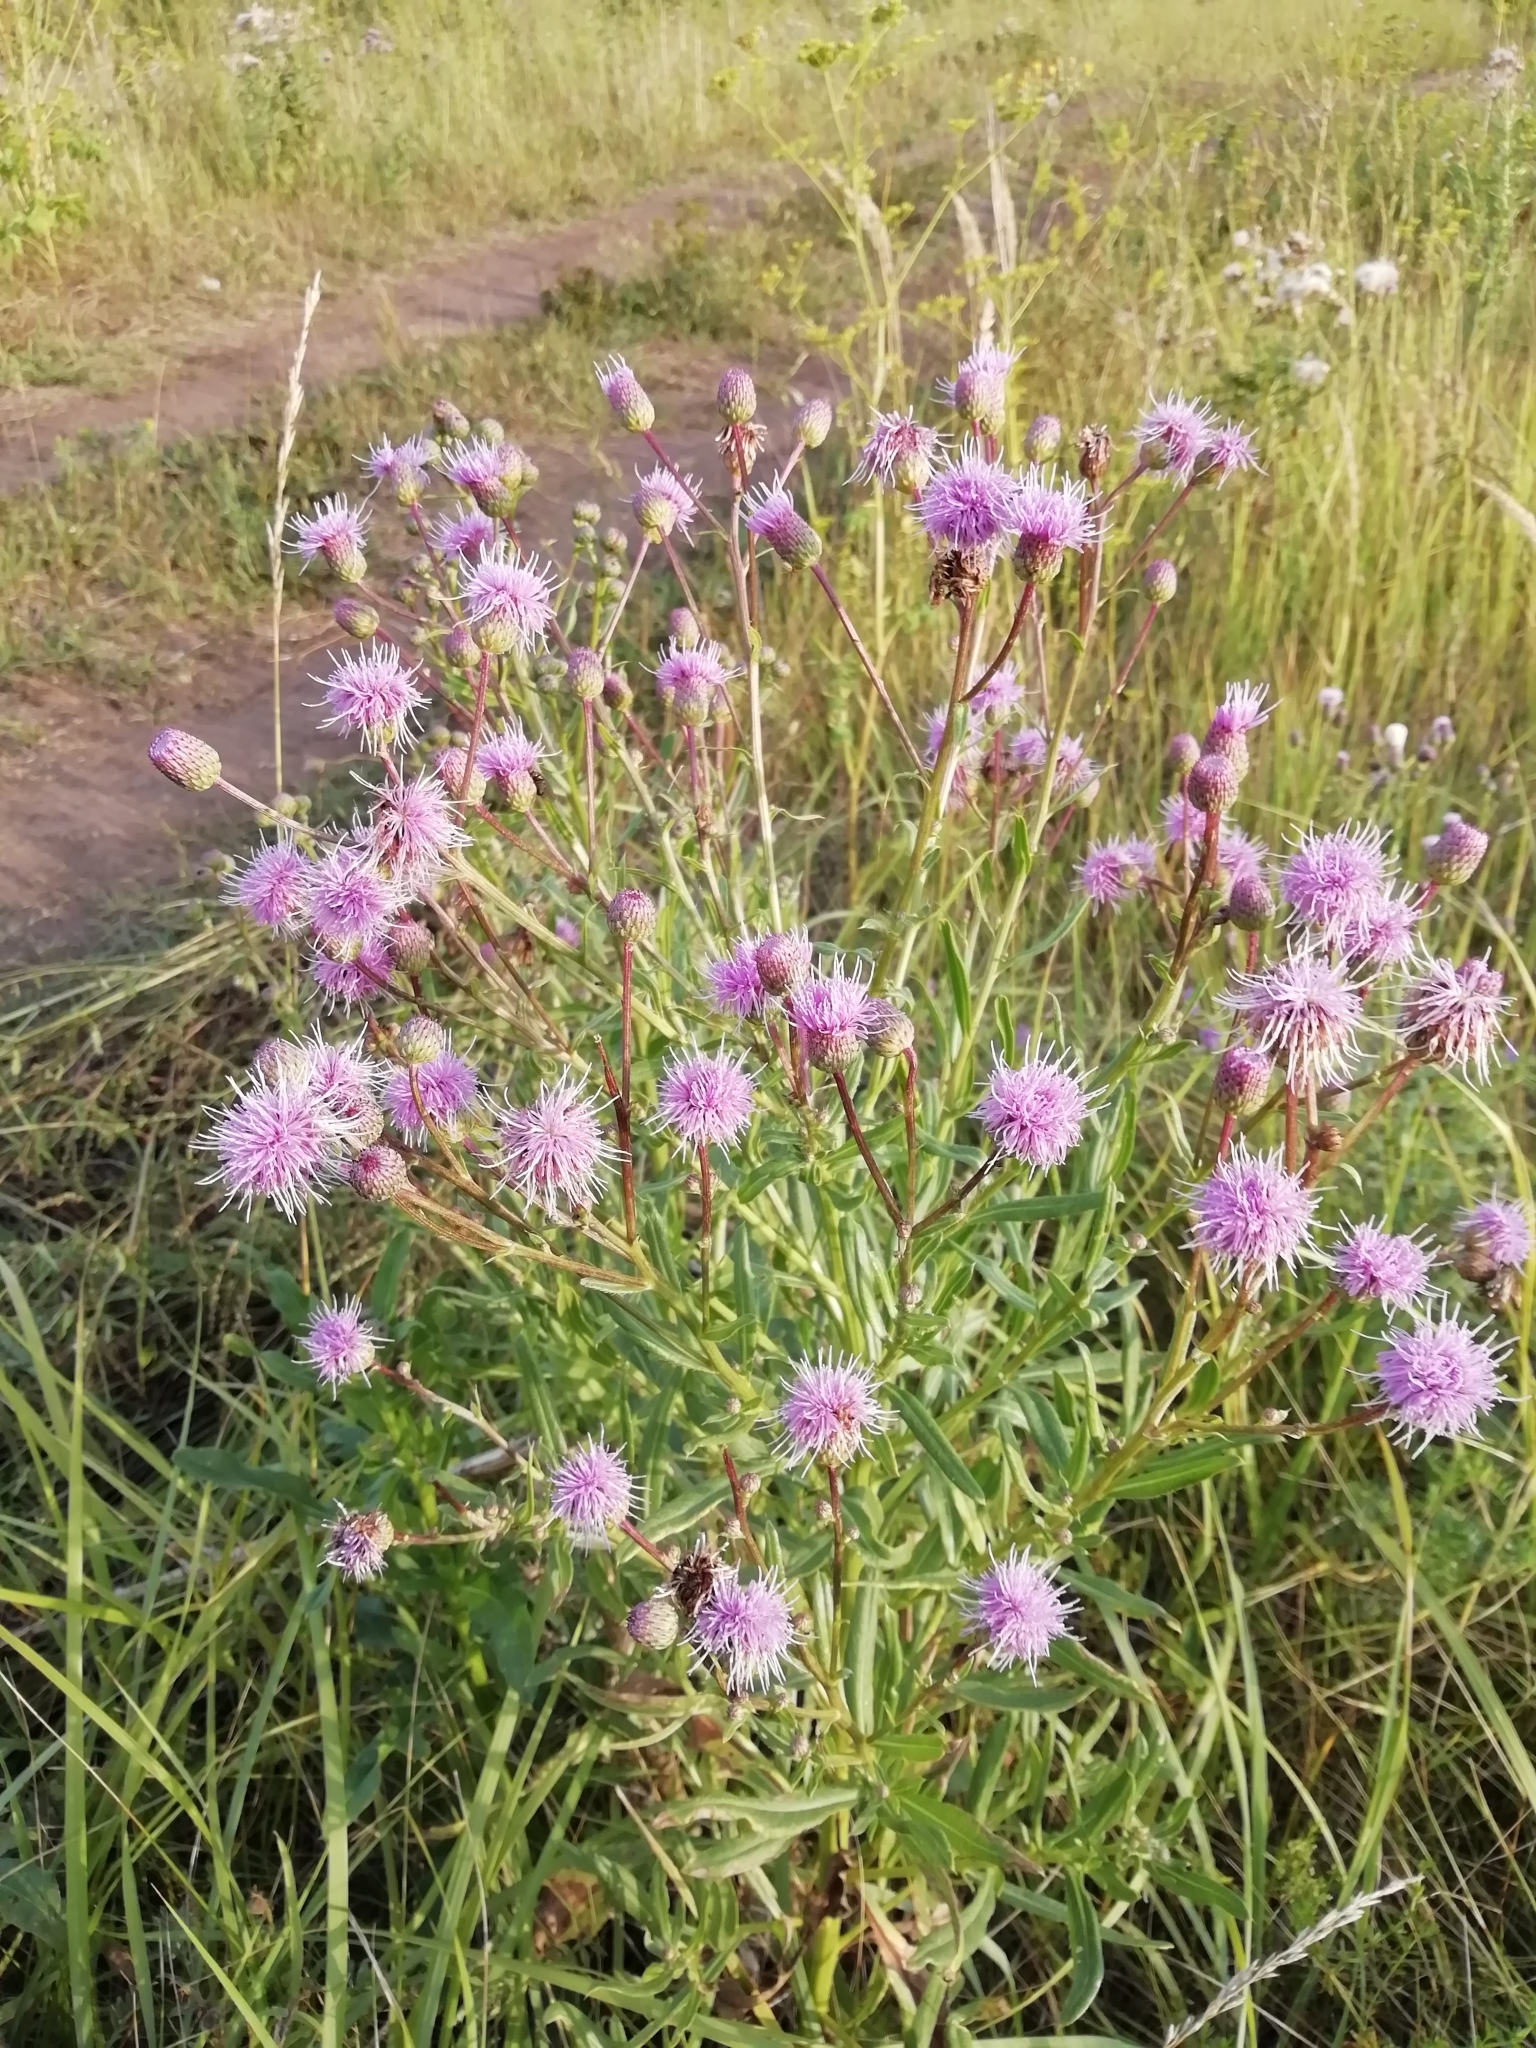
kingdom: Plantae
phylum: Tracheophyta
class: Magnoliopsida
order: Asterales
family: Asteraceae
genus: Cirsium
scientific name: Cirsium arvense
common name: Creeping thistle
